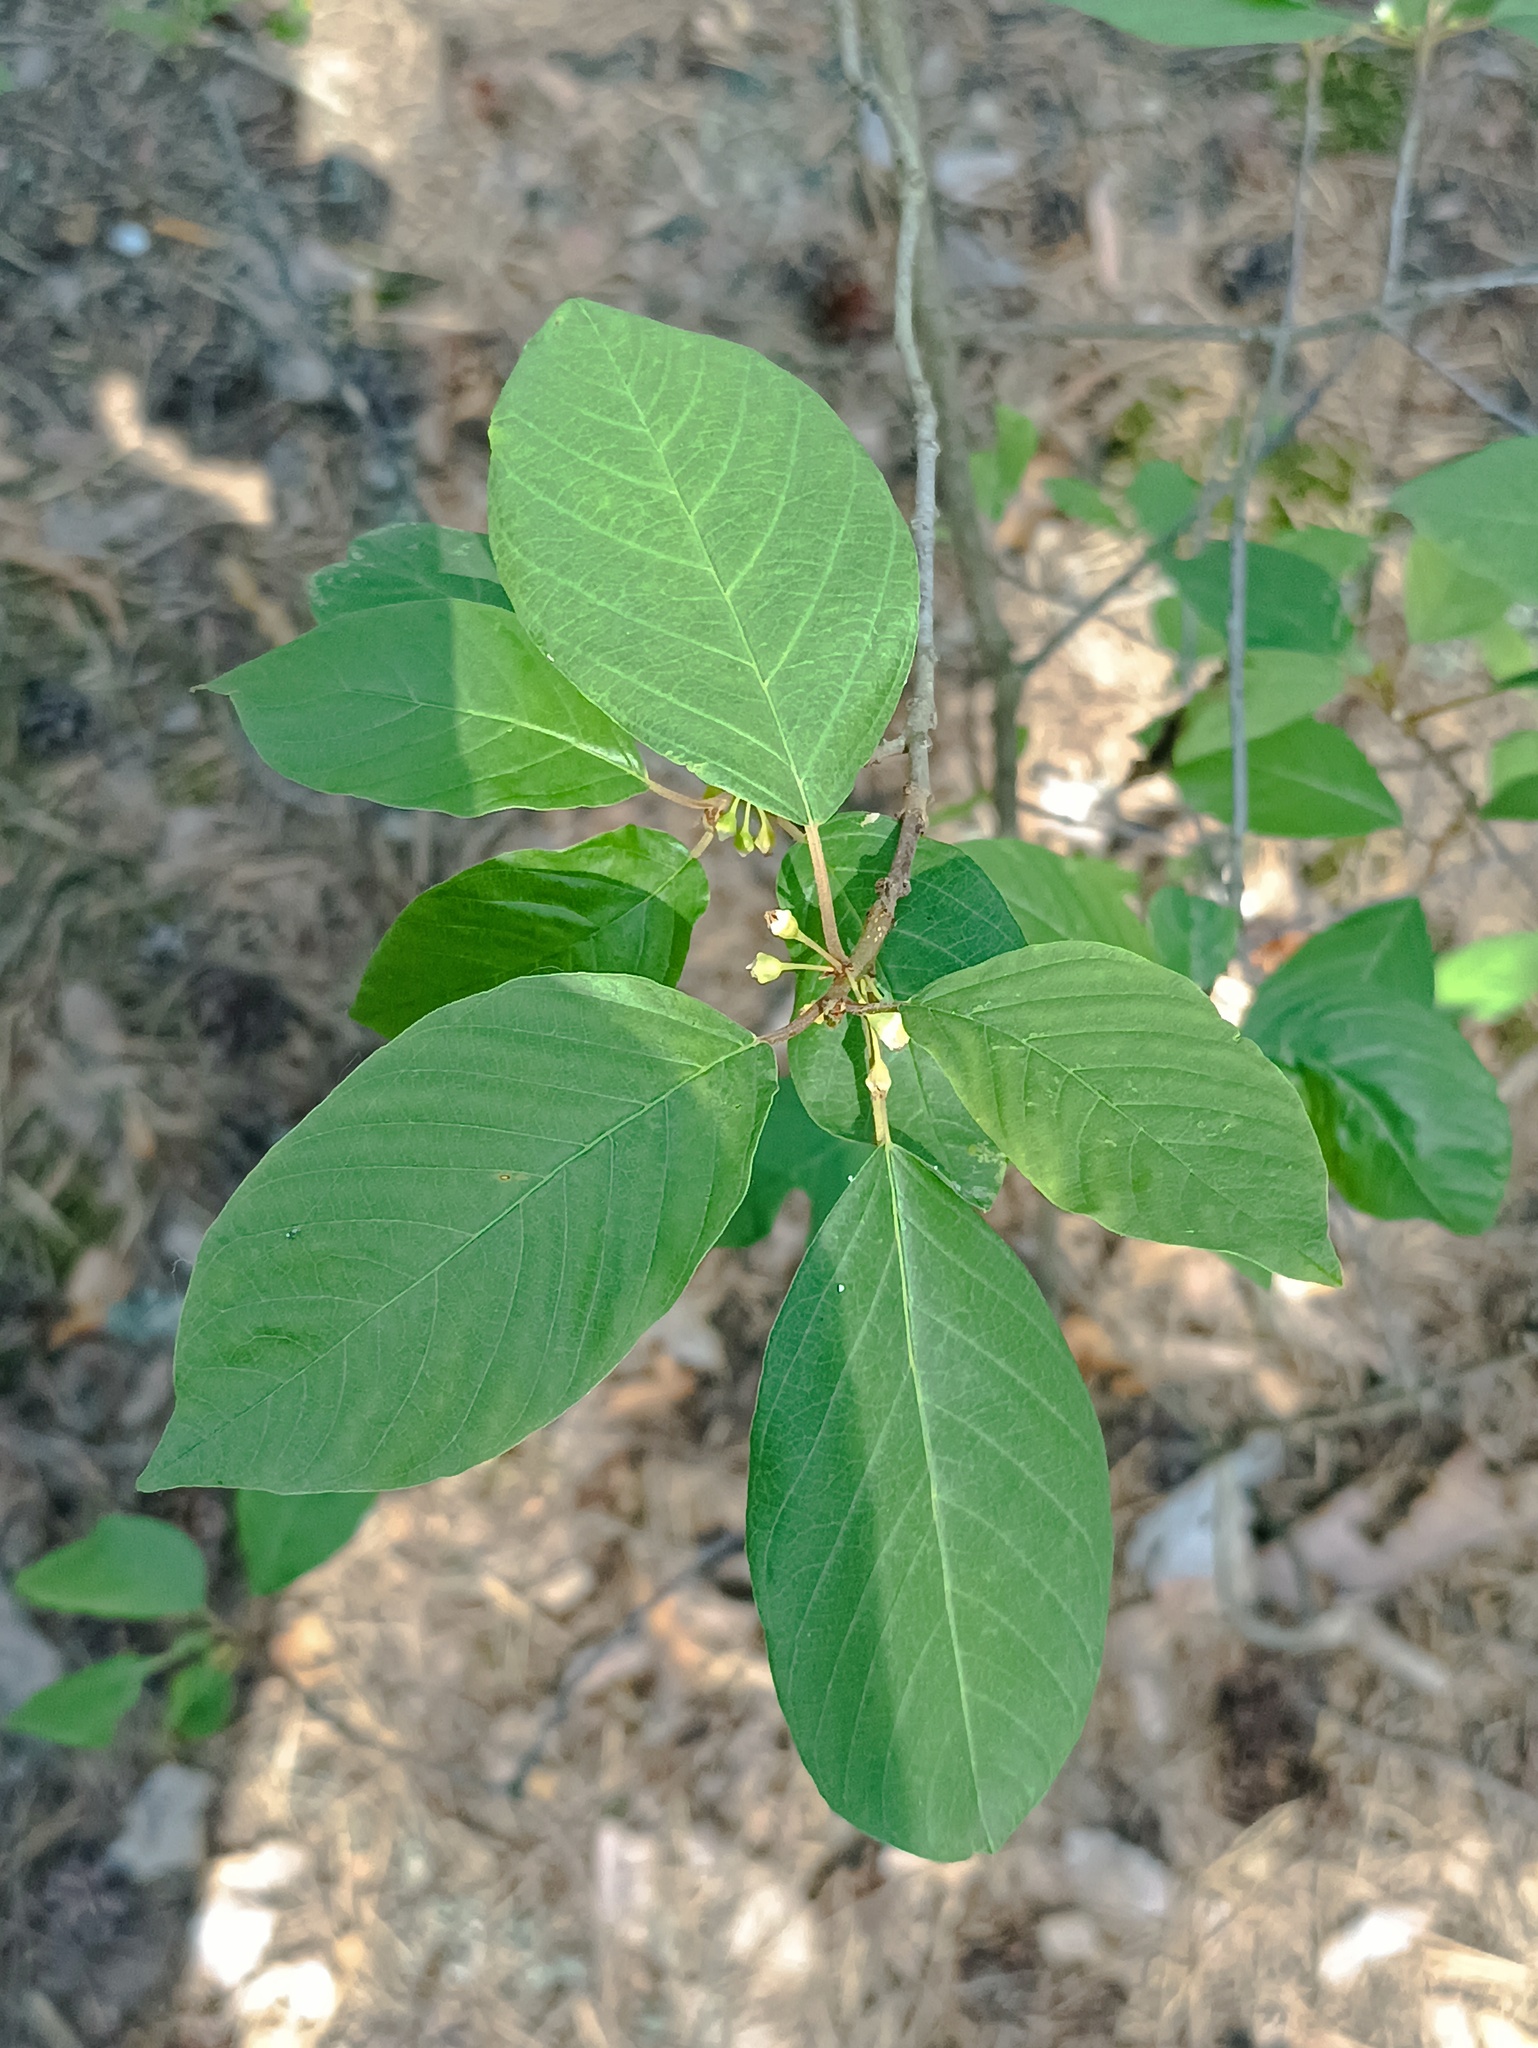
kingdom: Plantae
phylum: Tracheophyta
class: Magnoliopsida
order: Rosales
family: Rhamnaceae
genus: Frangula
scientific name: Frangula alnus
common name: Alder buckthorn
